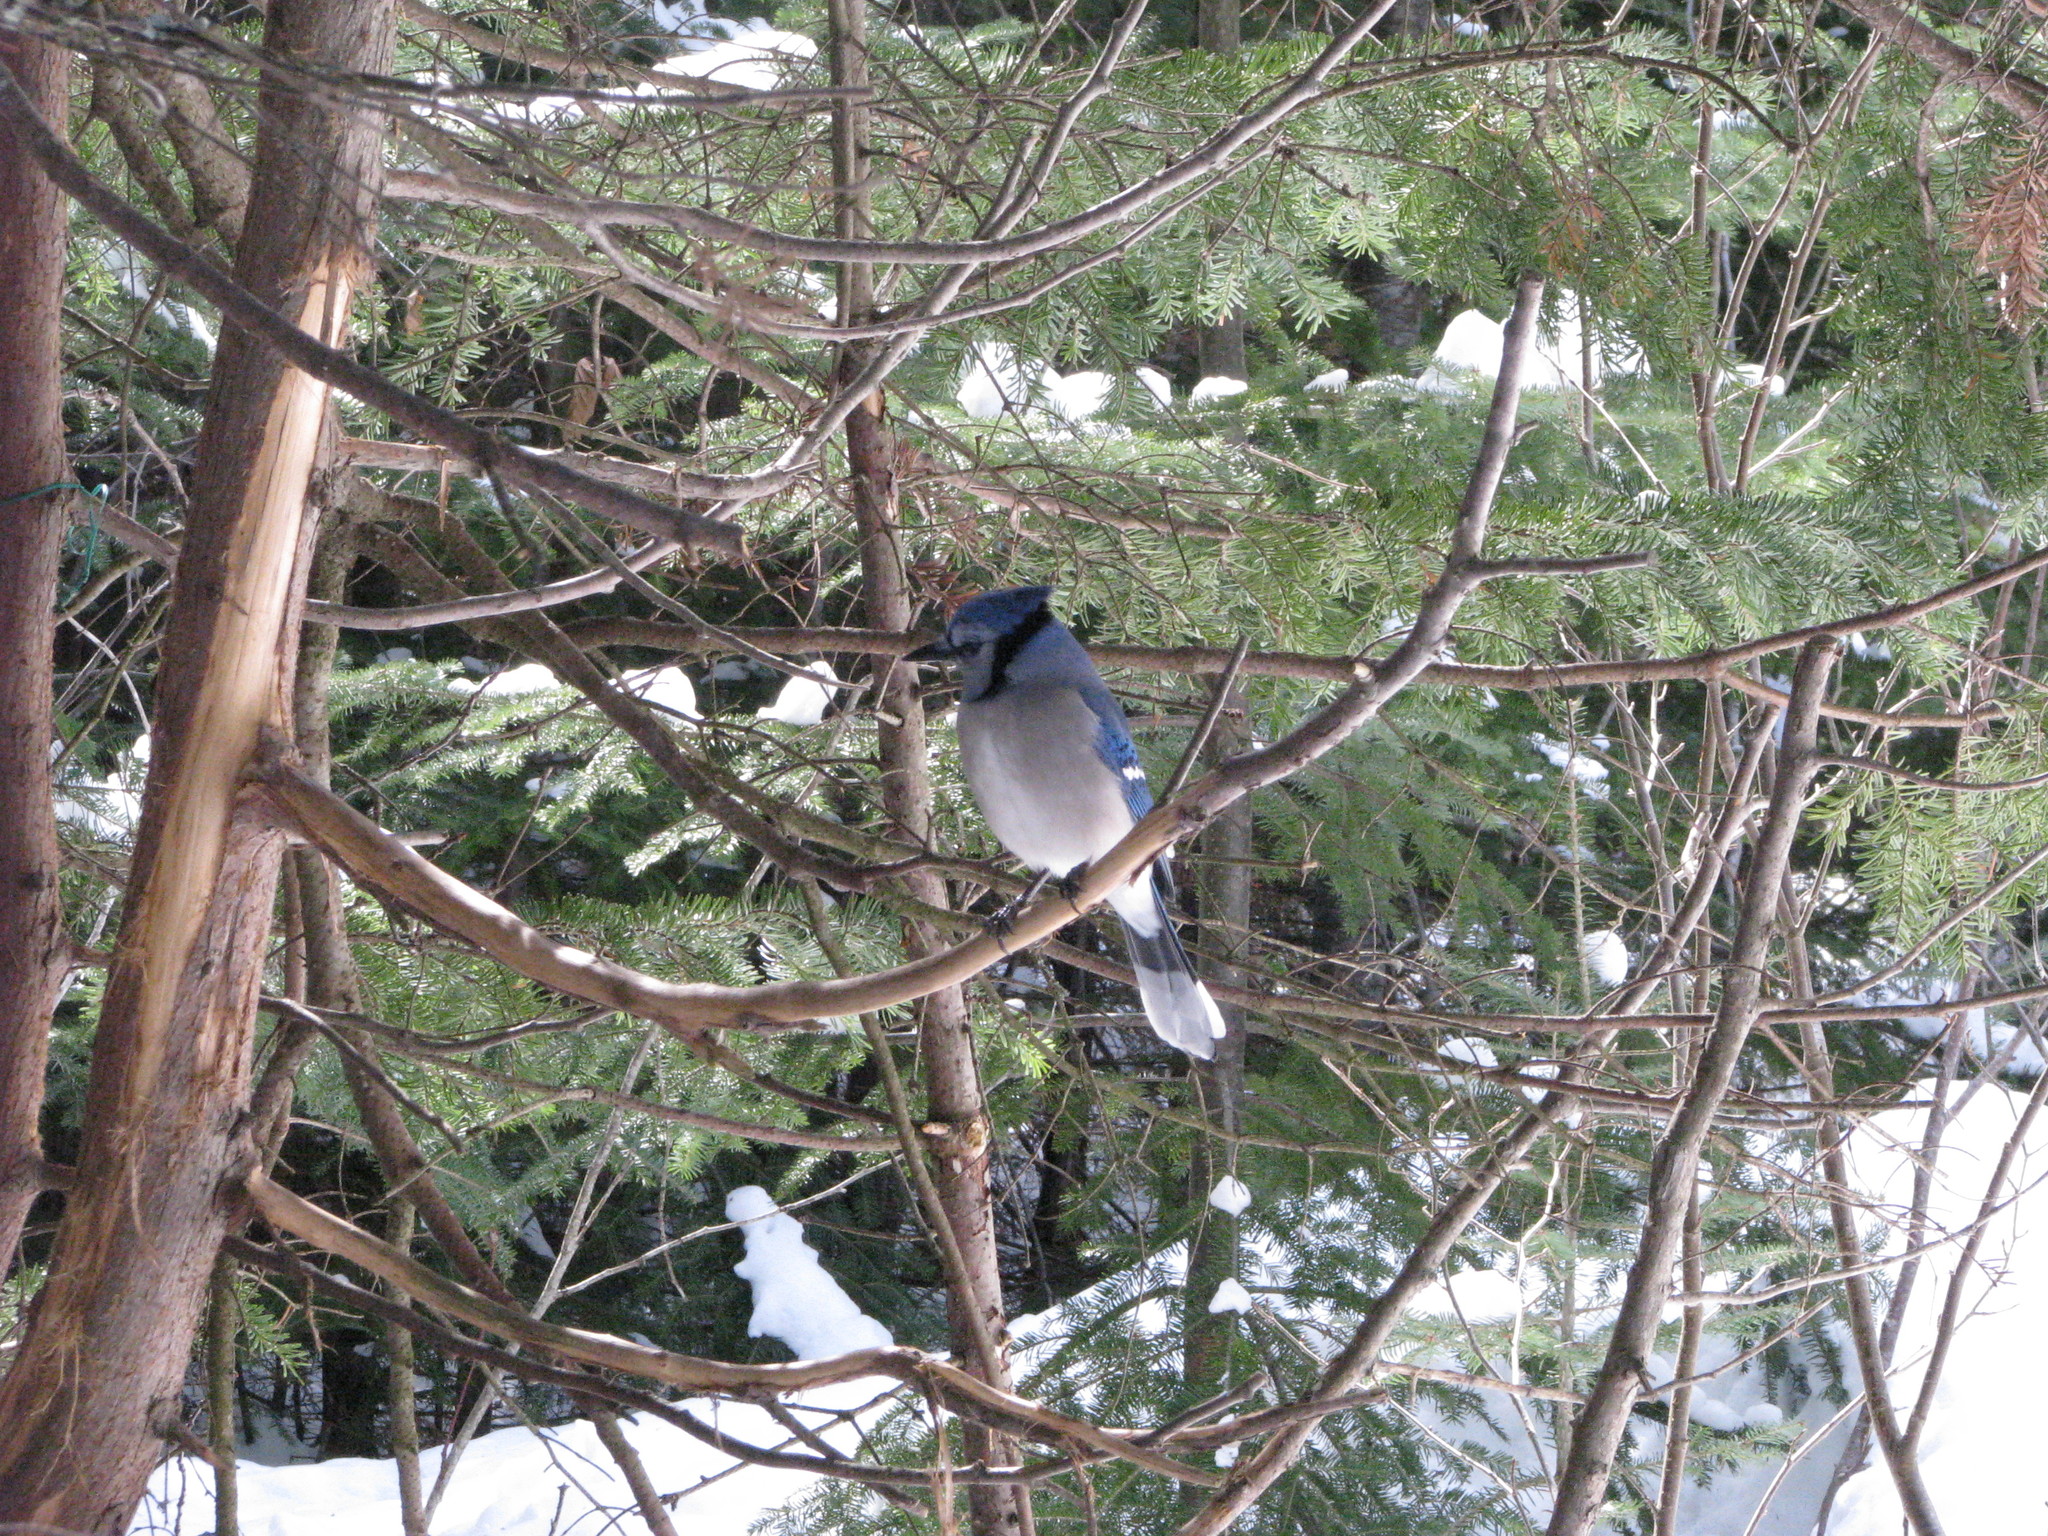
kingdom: Animalia
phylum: Chordata
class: Aves
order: Passeriformes
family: Corvidae
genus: Cyanocitta
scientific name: Cyanocitta cristata
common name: Blue jay
